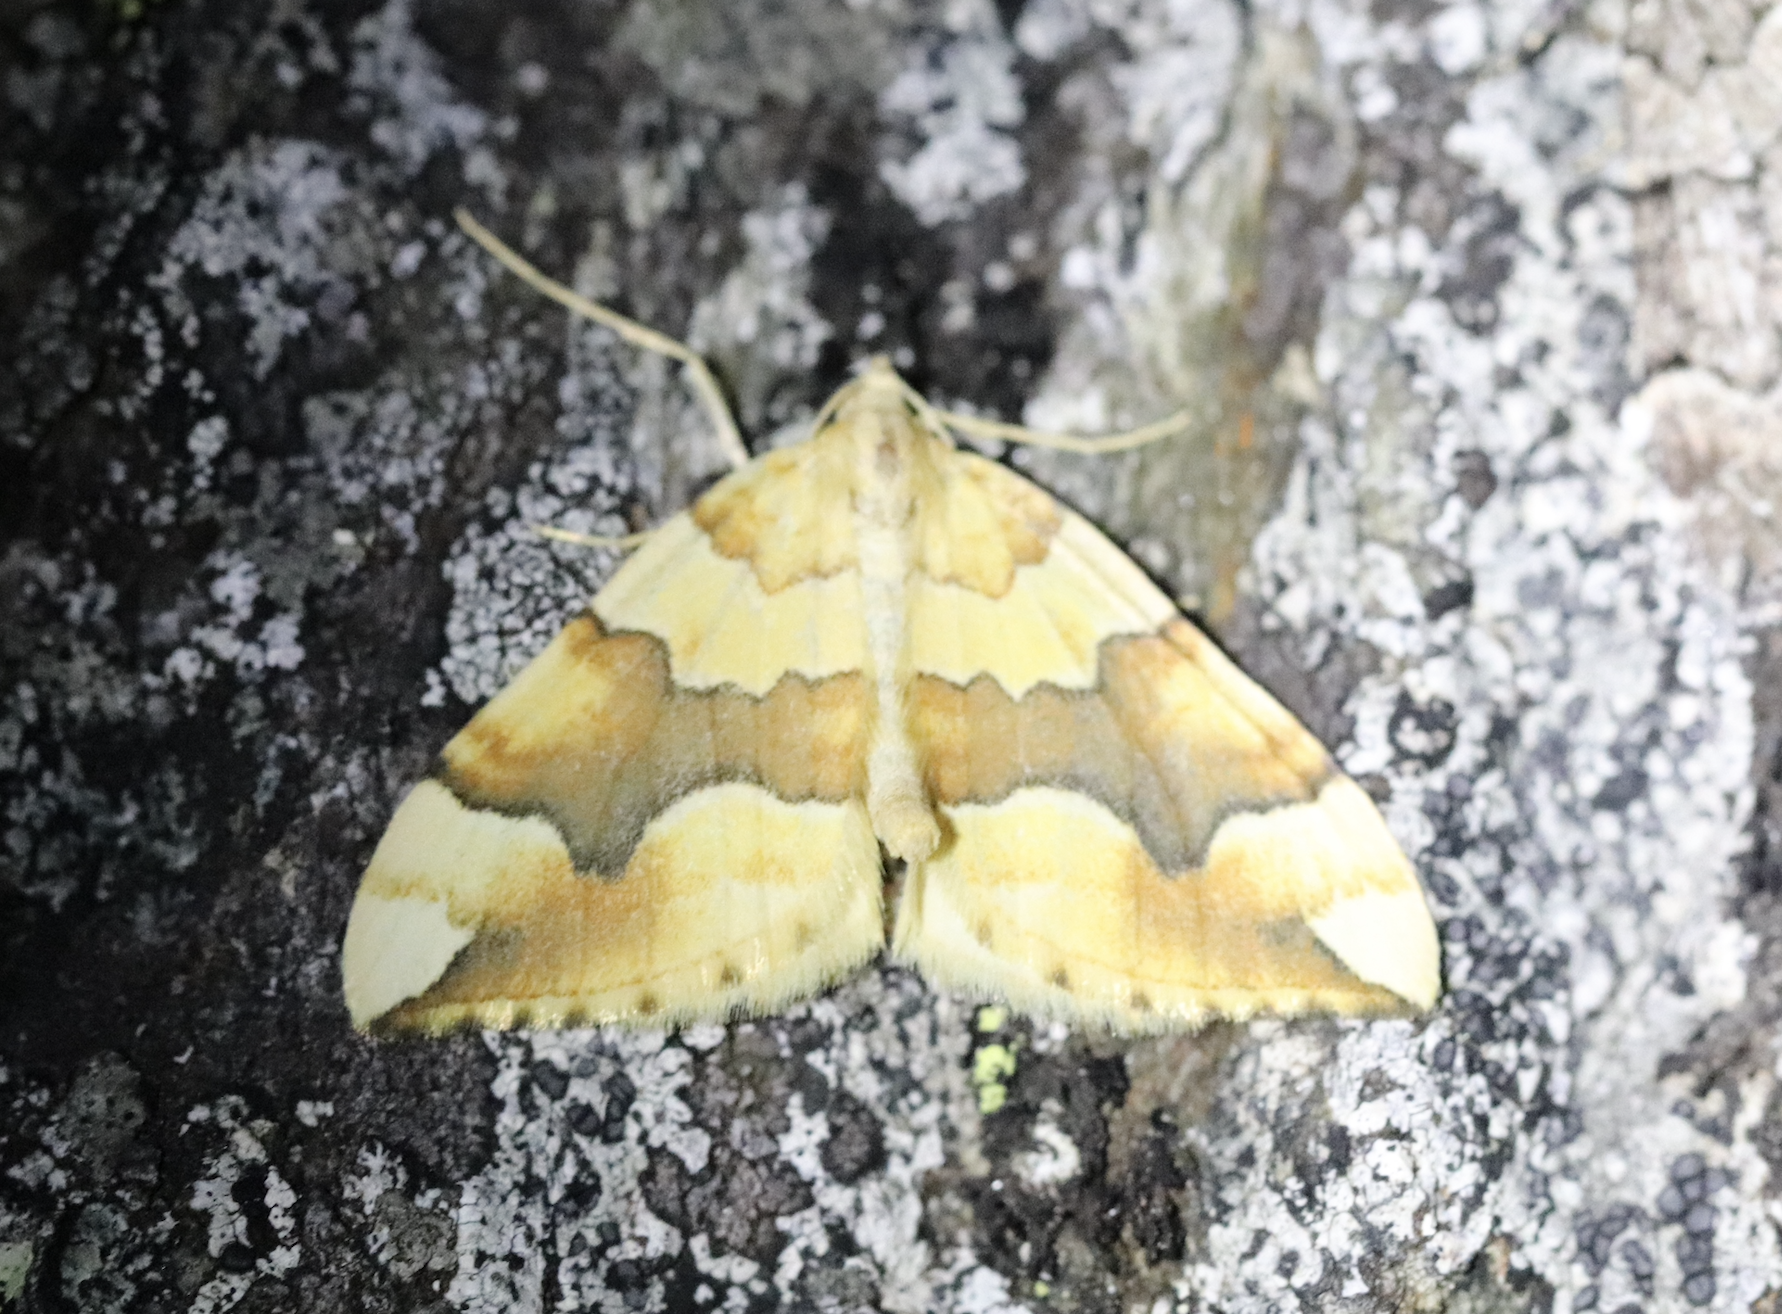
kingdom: Animalia
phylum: Arthropoda
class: Insecta
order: Lepidoptera
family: Geometridae
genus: Cidaria
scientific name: Cidaria fulvata
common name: Barred yellow
